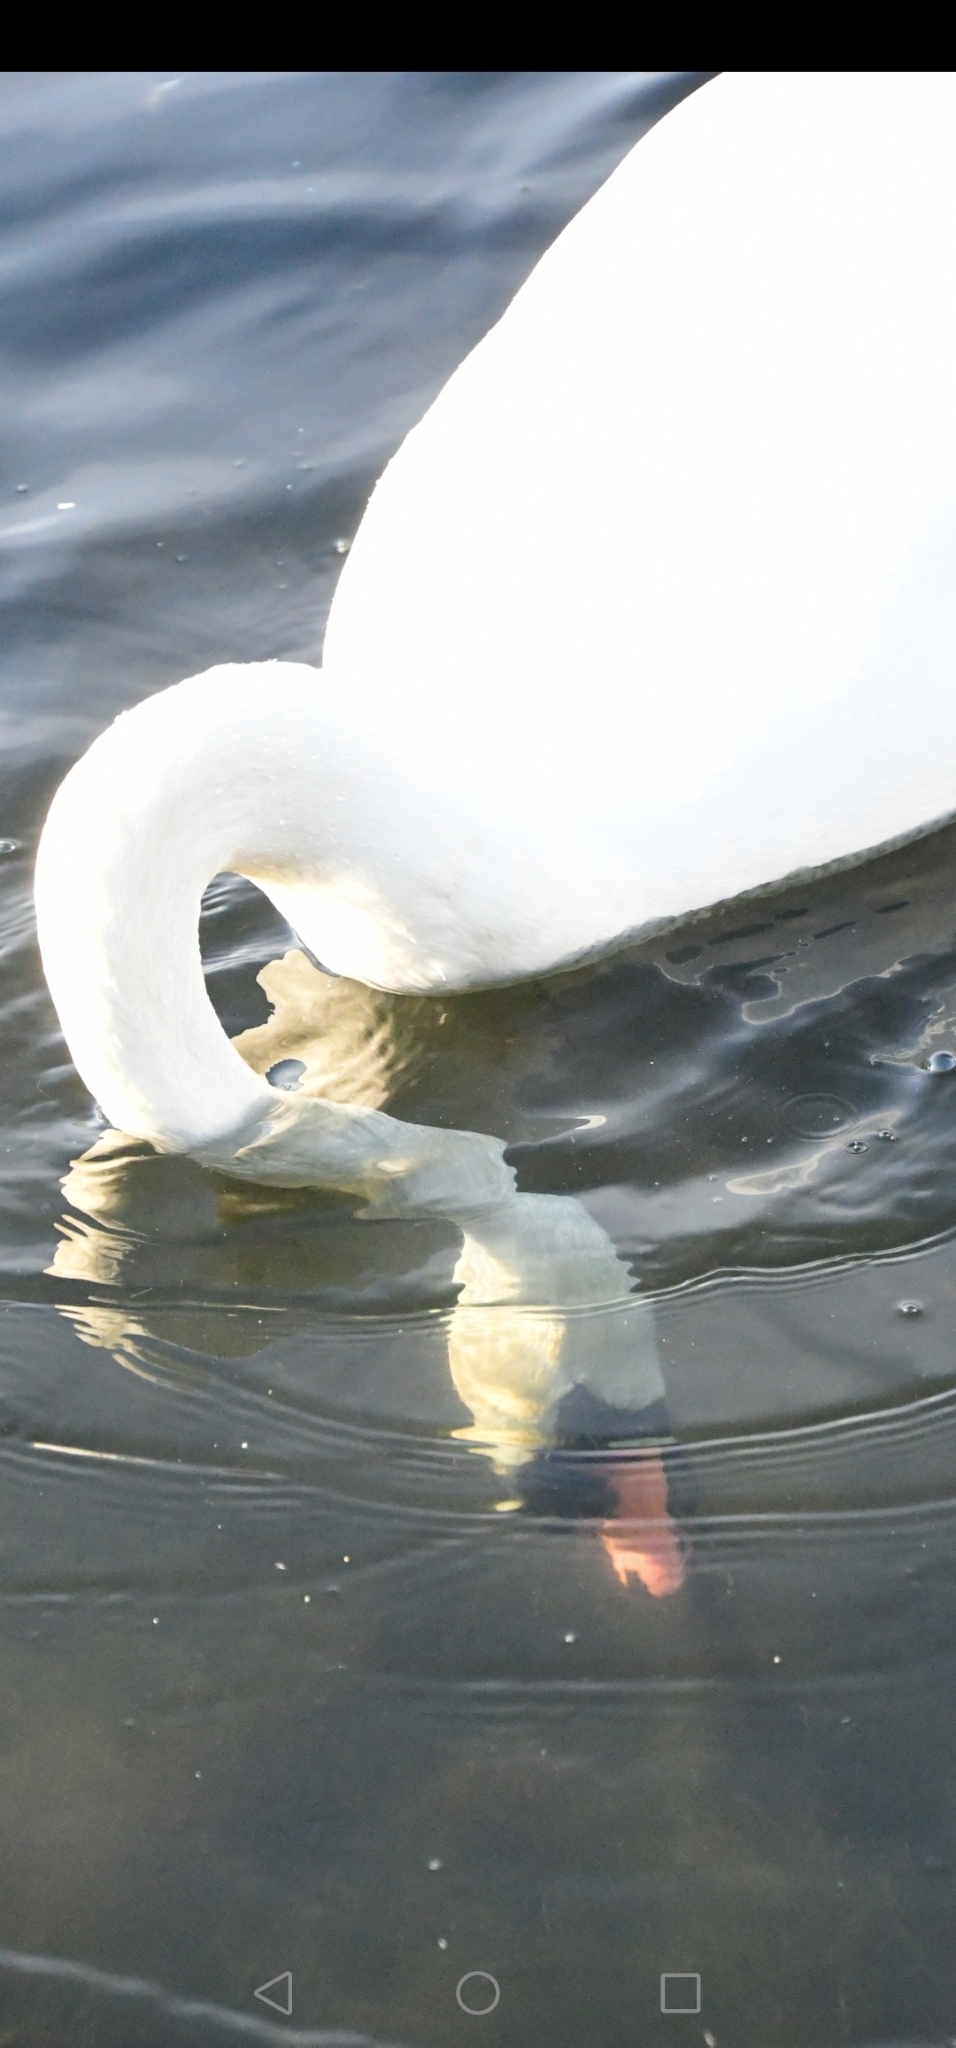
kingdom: Animalia
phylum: Chordata
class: Aves
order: Anseriformes
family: Anatidae
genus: Cygnus
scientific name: Cygnus olor
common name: Mute swan
